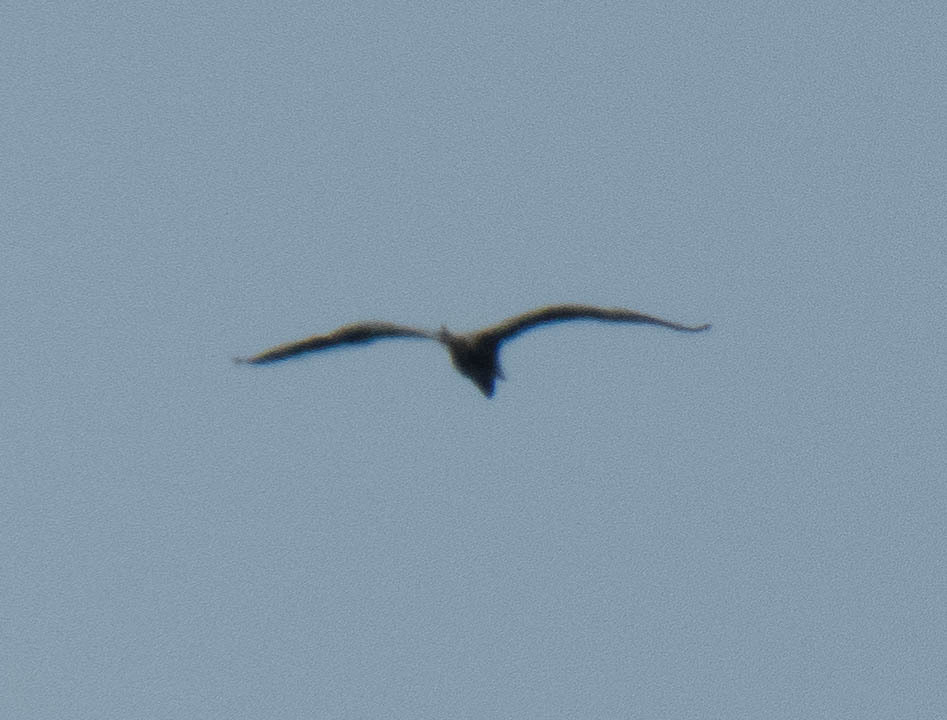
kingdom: Animalia
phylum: Chordata
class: Aves
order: Pelecaniformes
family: Ardeidae
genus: Ardea
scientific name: Ardea herodias
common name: Great blue heron
